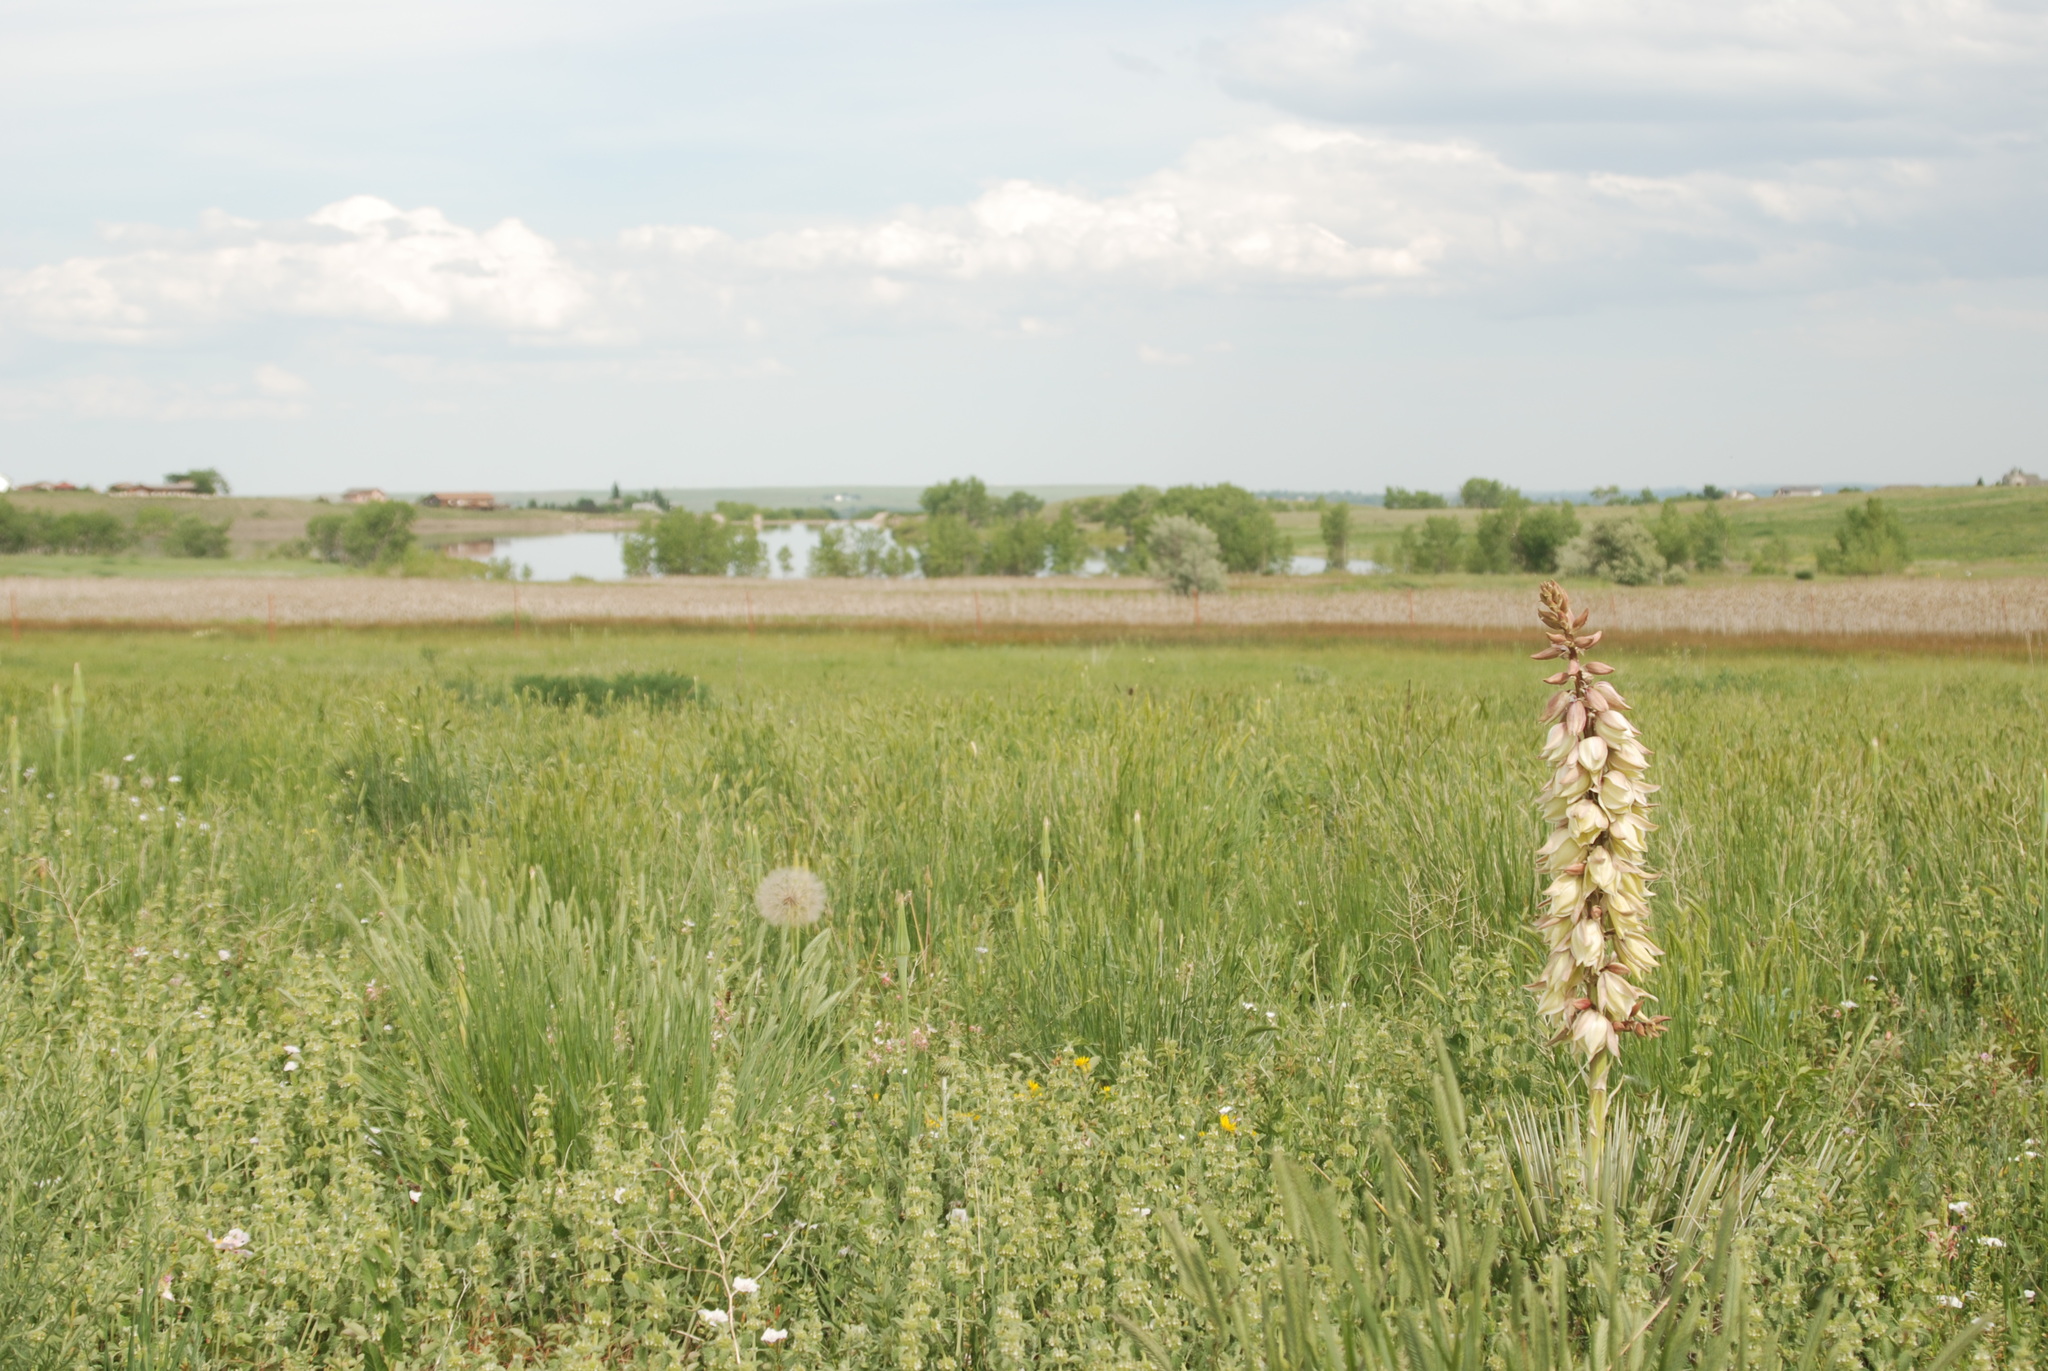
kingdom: Plantae
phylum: Tracheophyta
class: Liliopsida
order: Asparagales
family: Asparagaceae
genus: Yucca
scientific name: Yucca glauca
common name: Great plains yucca
